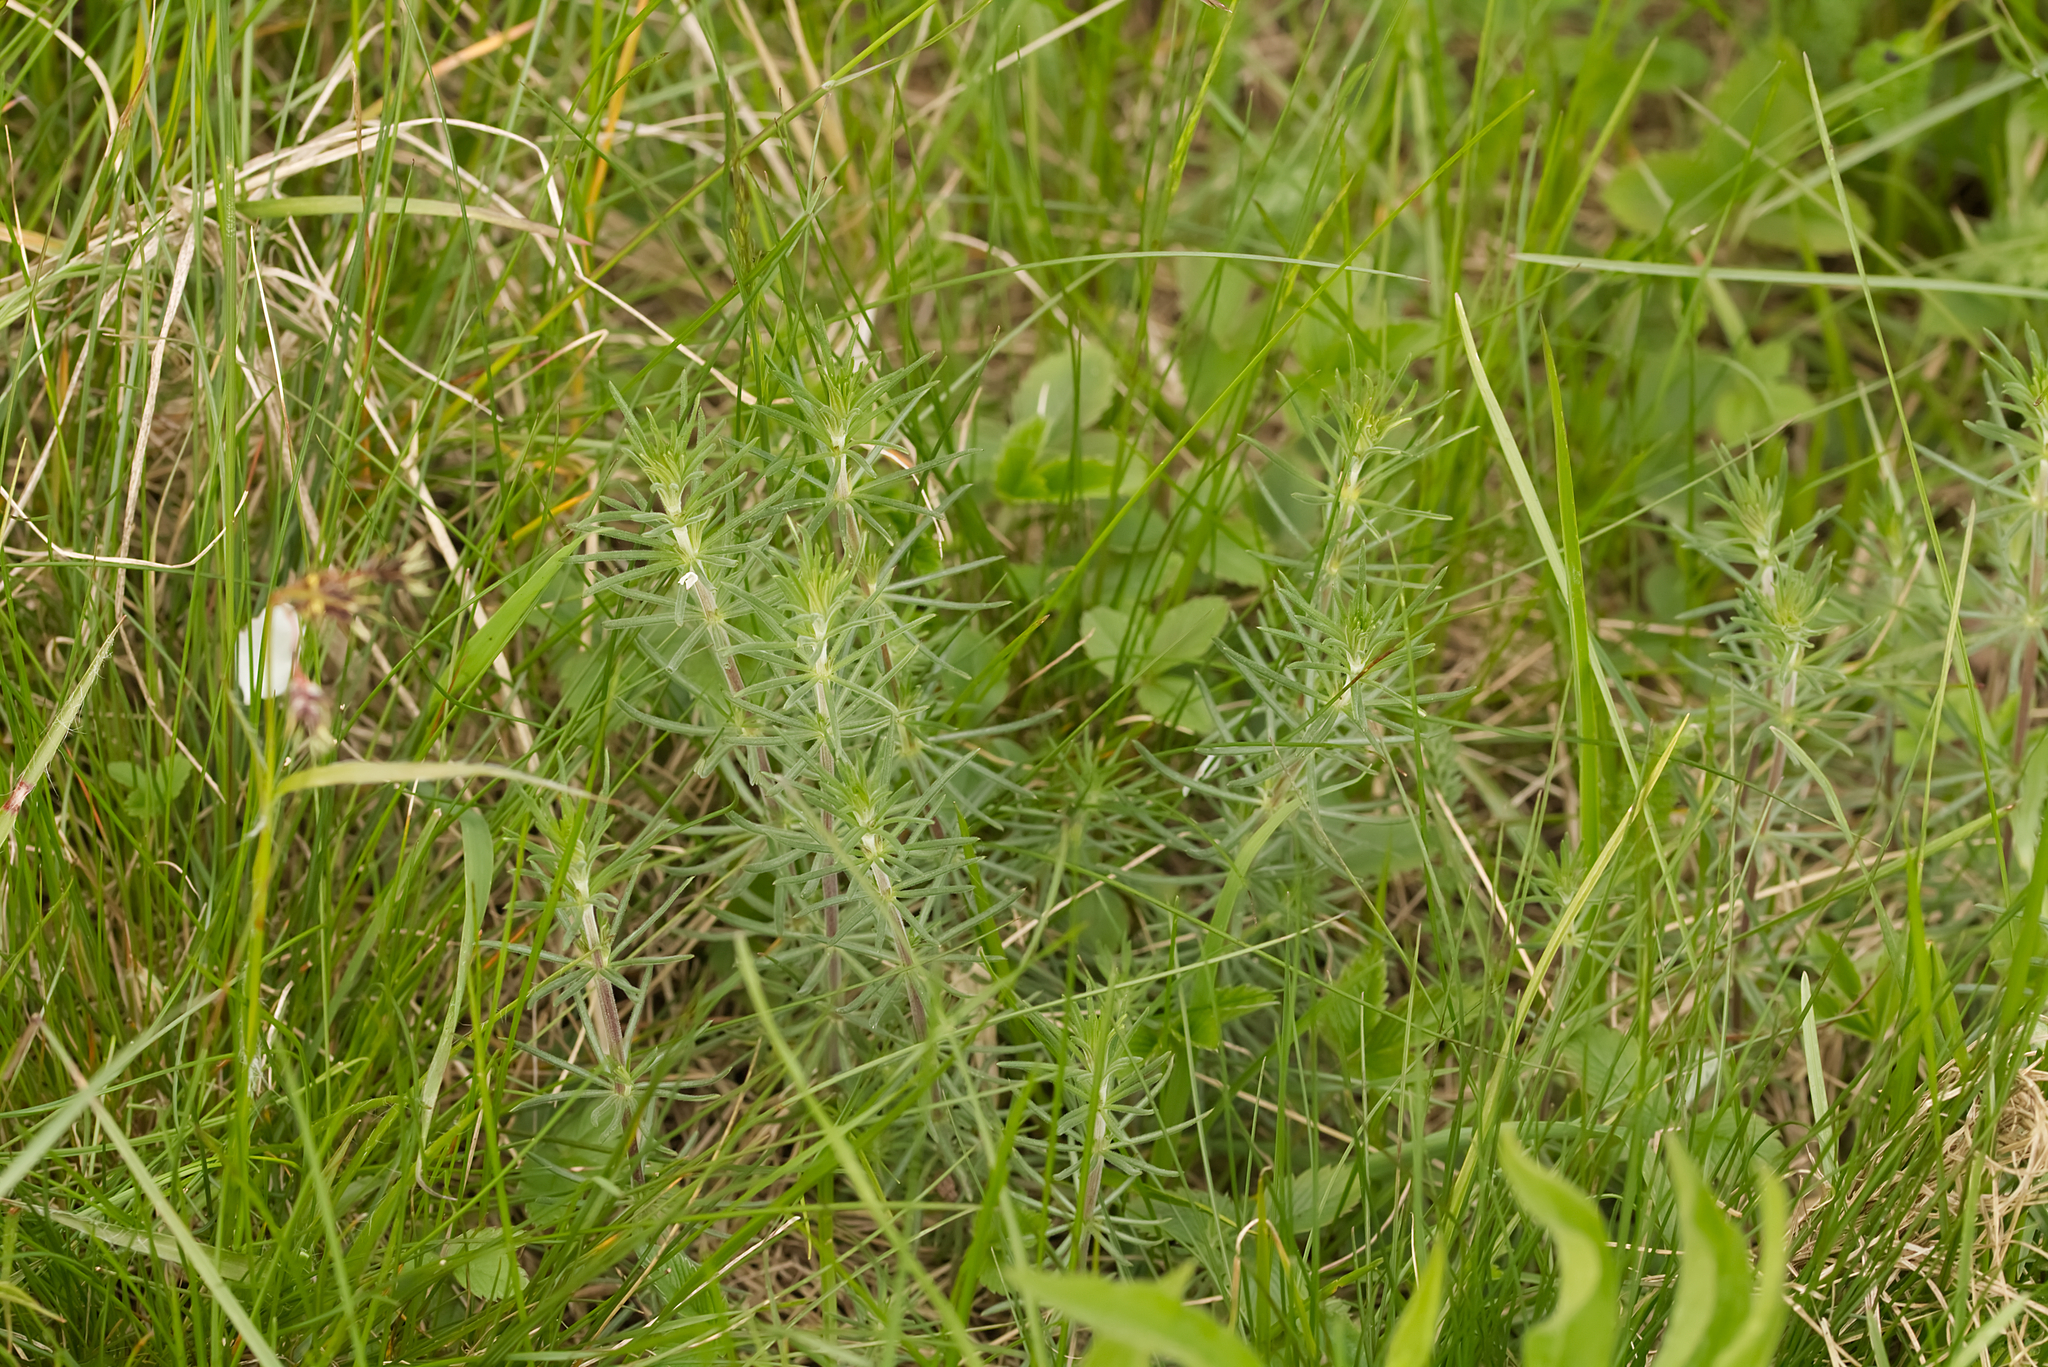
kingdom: Plantae
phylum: Tracheophyta
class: Magnoliopsida
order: Gentianales
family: Rubiaceae
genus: Galium
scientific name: Galium verum
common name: Lady's bedstraw
